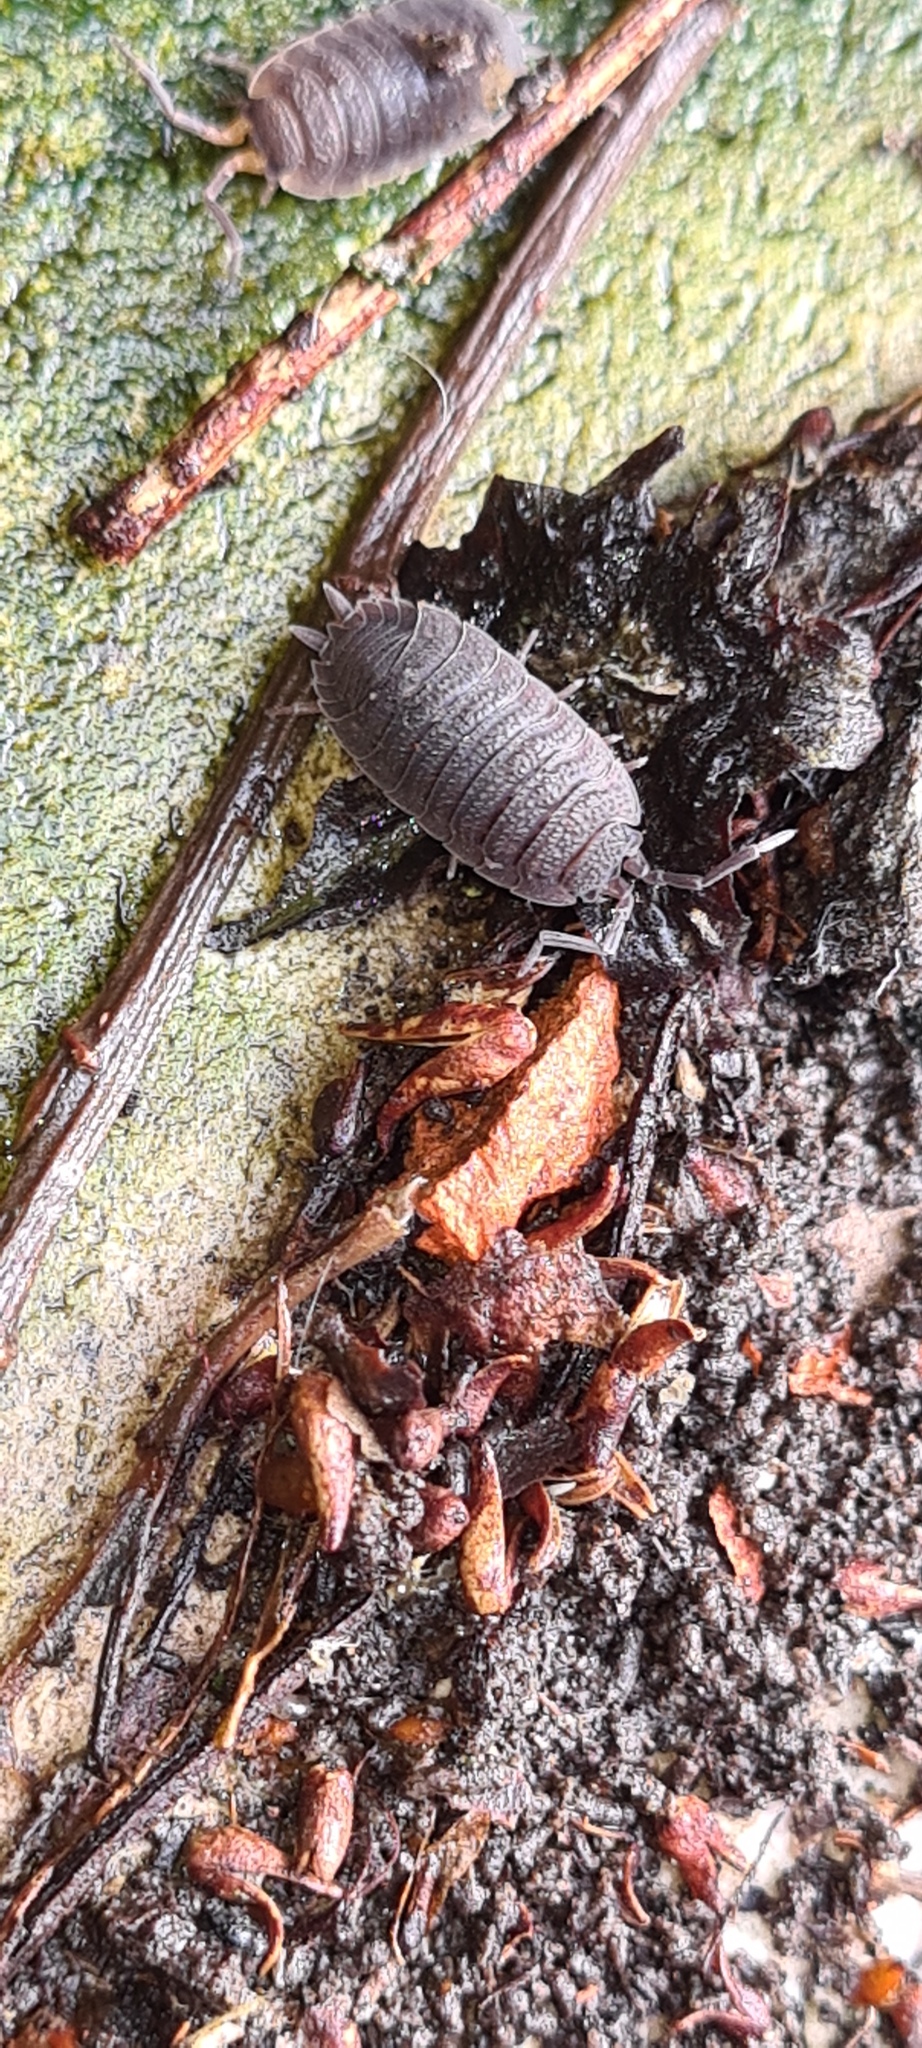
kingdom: Animalia
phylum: Arthropoda
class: Malacostraca
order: Isopoda
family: Porcellionidae
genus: Porcellio
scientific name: Porcellio scaber
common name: Common rough woodlouse
